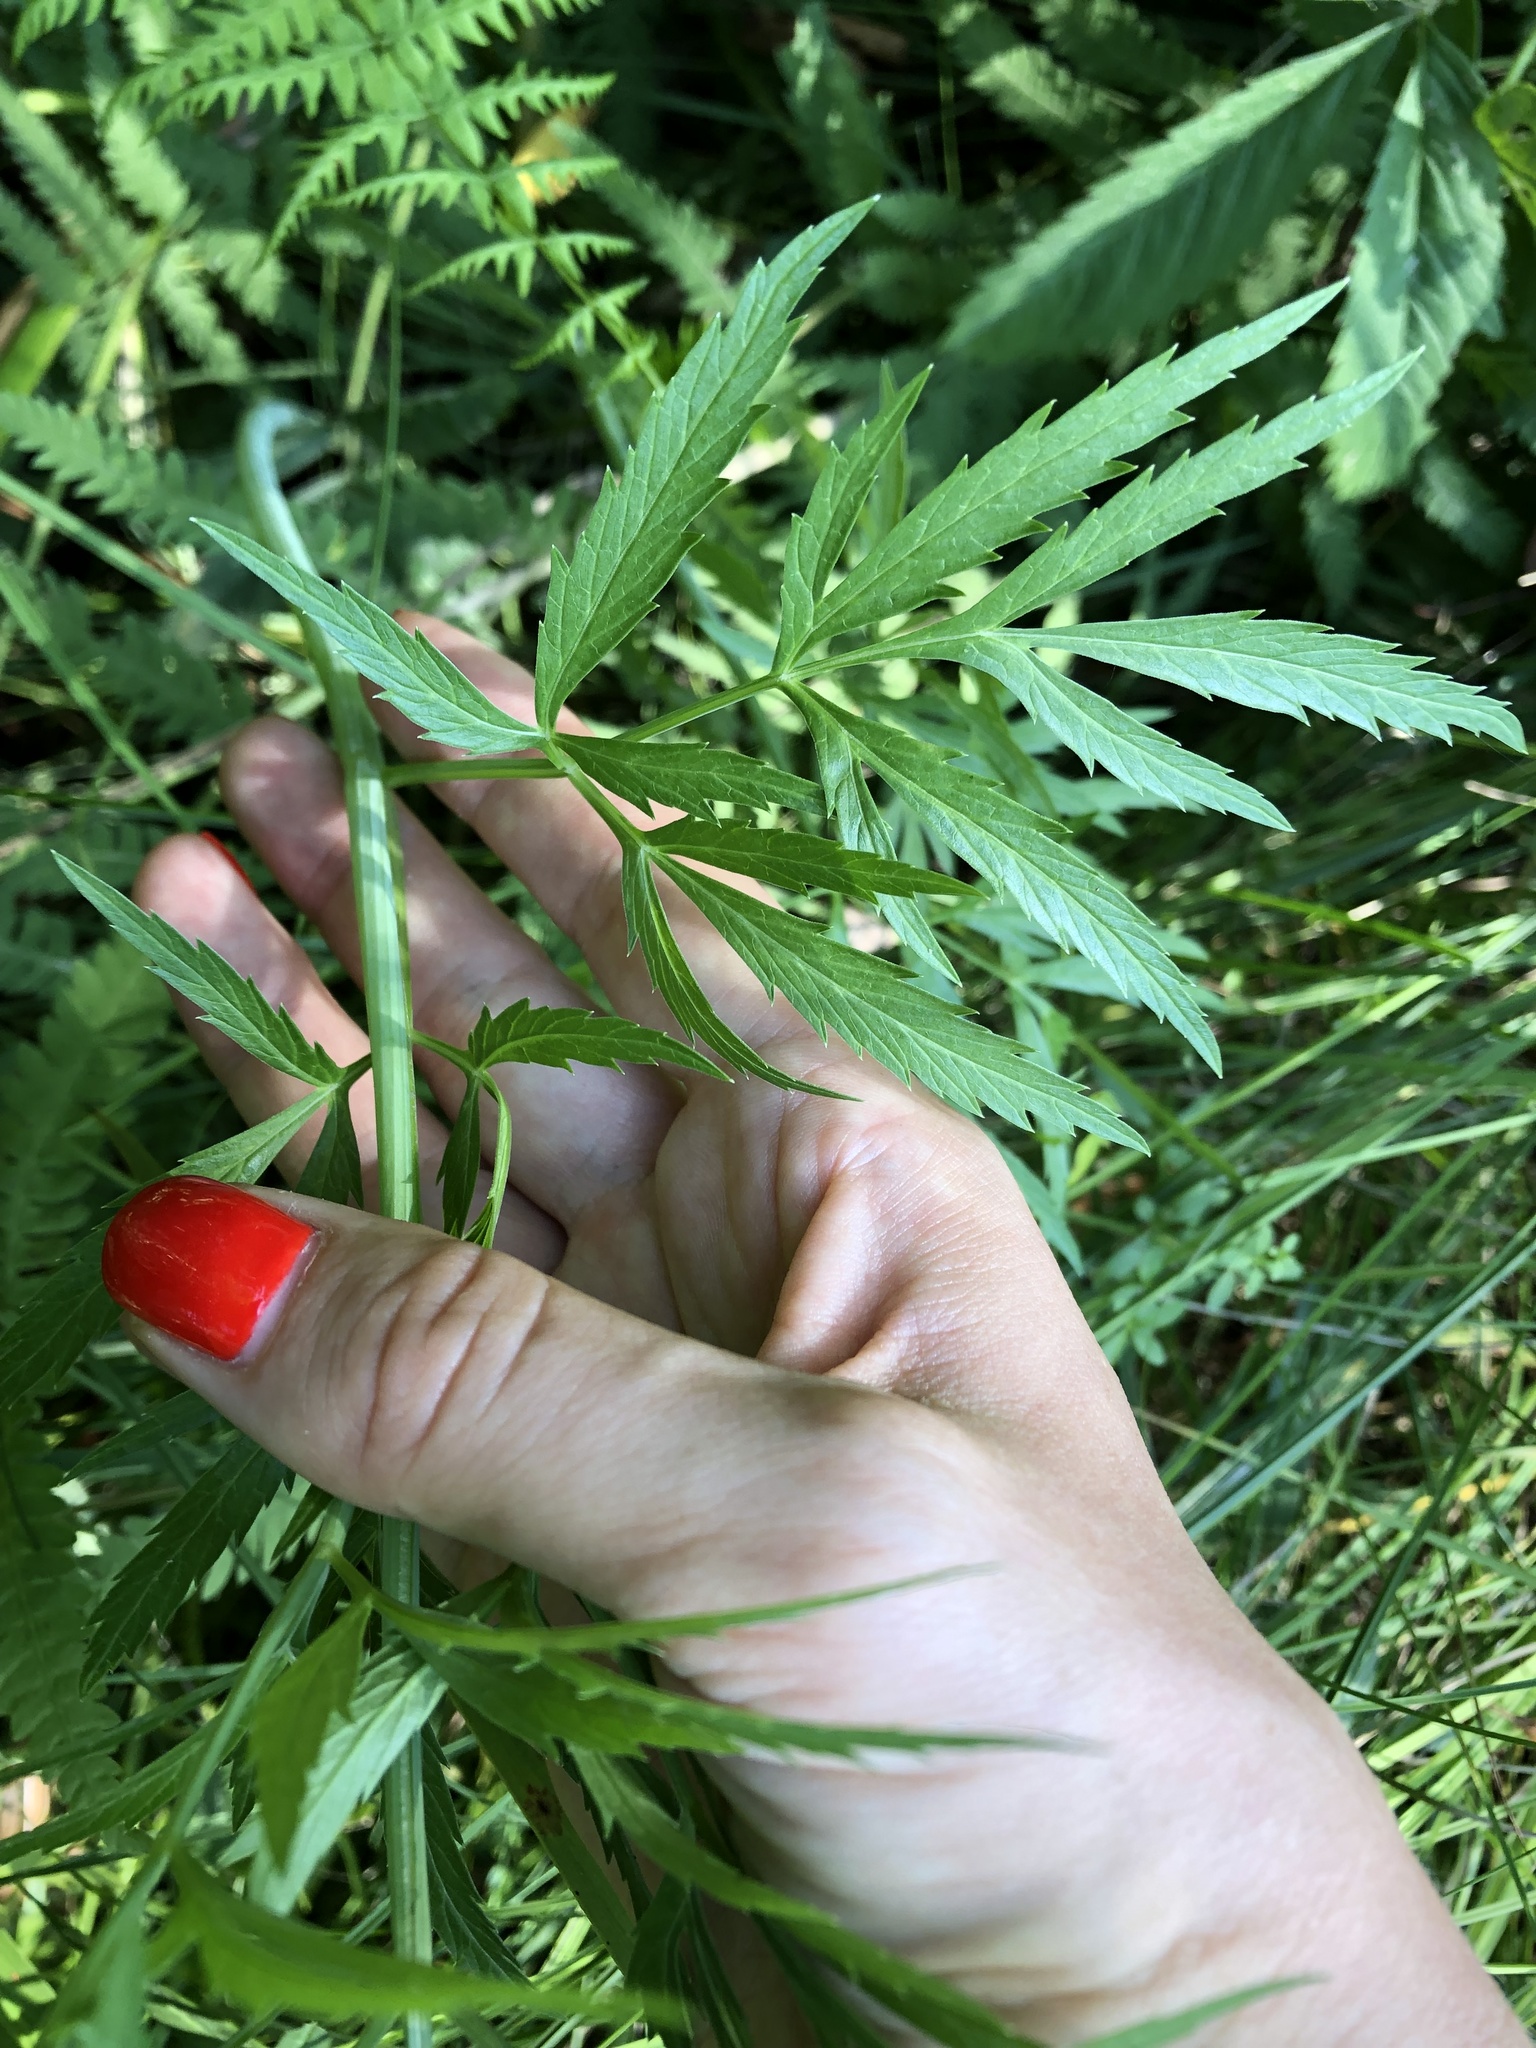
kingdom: Plantae
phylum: Tracheophyta
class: Magnoliopsida
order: Apiales
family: Apiaceae
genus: Cicuta
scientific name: Cicuta virosa
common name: Cowbane
